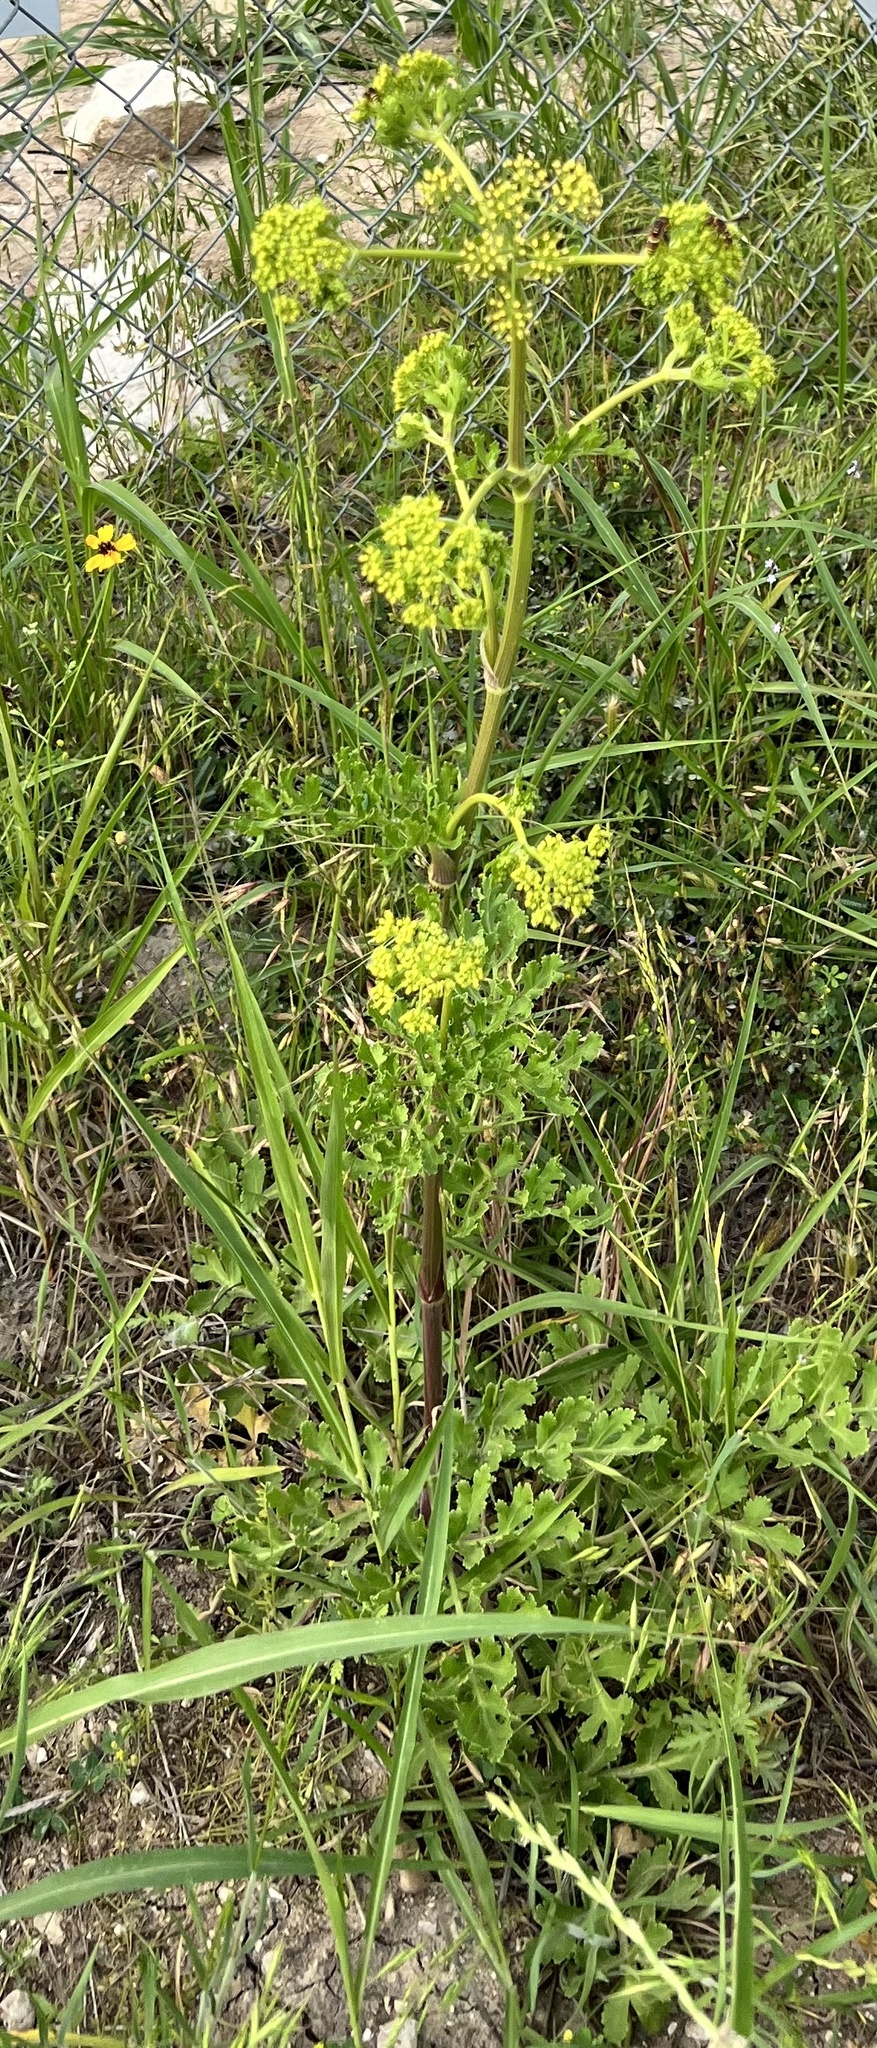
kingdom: Plantae
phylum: Tracheophyta
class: Magnoliopsida
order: Apiales
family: Apiaceae
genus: Polytaenia
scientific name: Polytaenia texana
